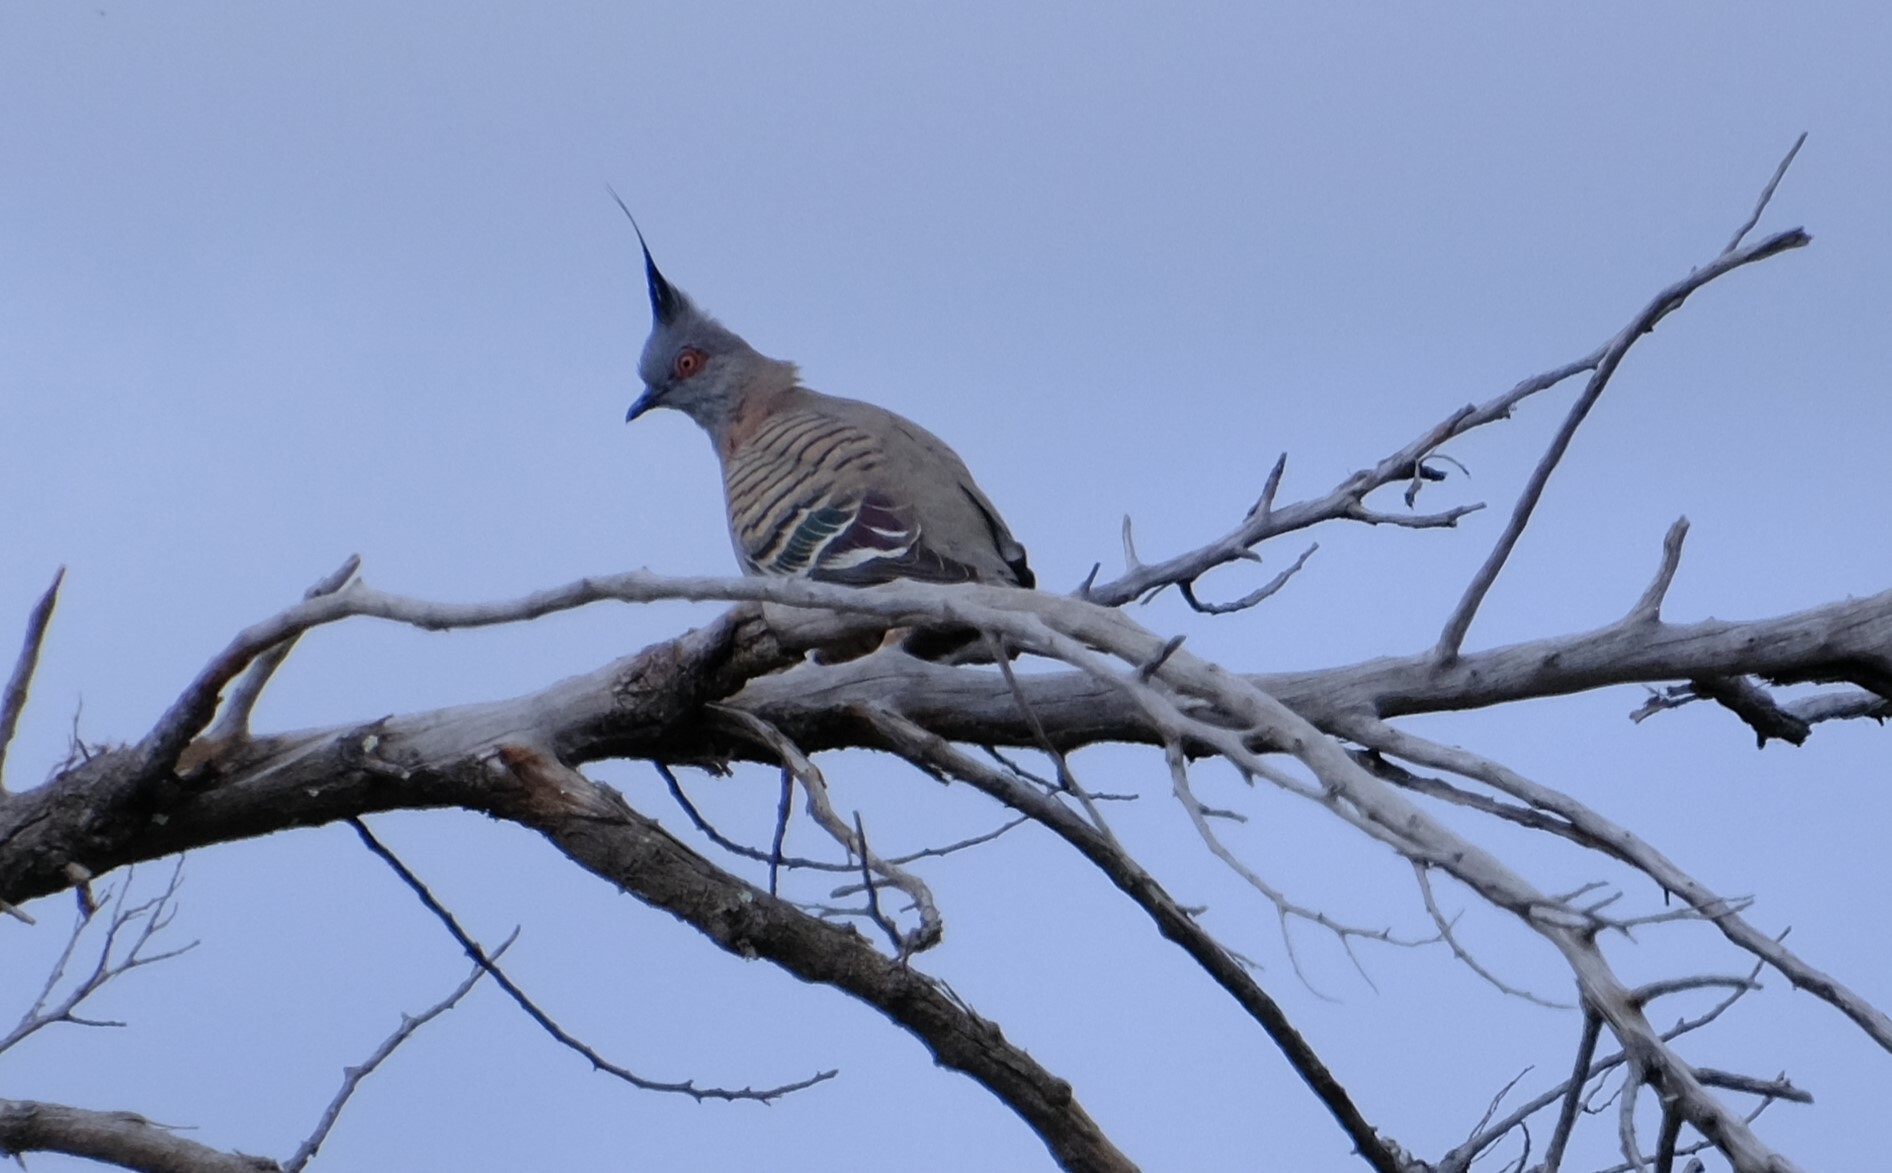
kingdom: Animalia
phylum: Chordata
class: Aves
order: Columbiformes
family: Columbidae
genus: Ocyphaps
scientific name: Ocyphaps lophotes
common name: Crested pigeon
